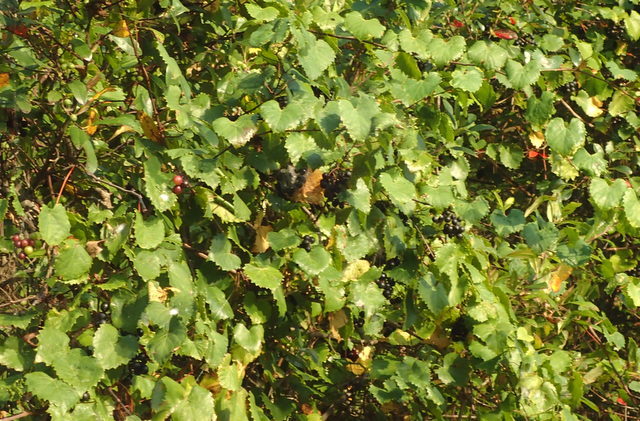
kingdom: Plantae
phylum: Tracheophyta
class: Magnoliopsida
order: Vitales
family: Vitaceae
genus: Vitis
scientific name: Vitis rotundifolia
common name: Muscadine grape
